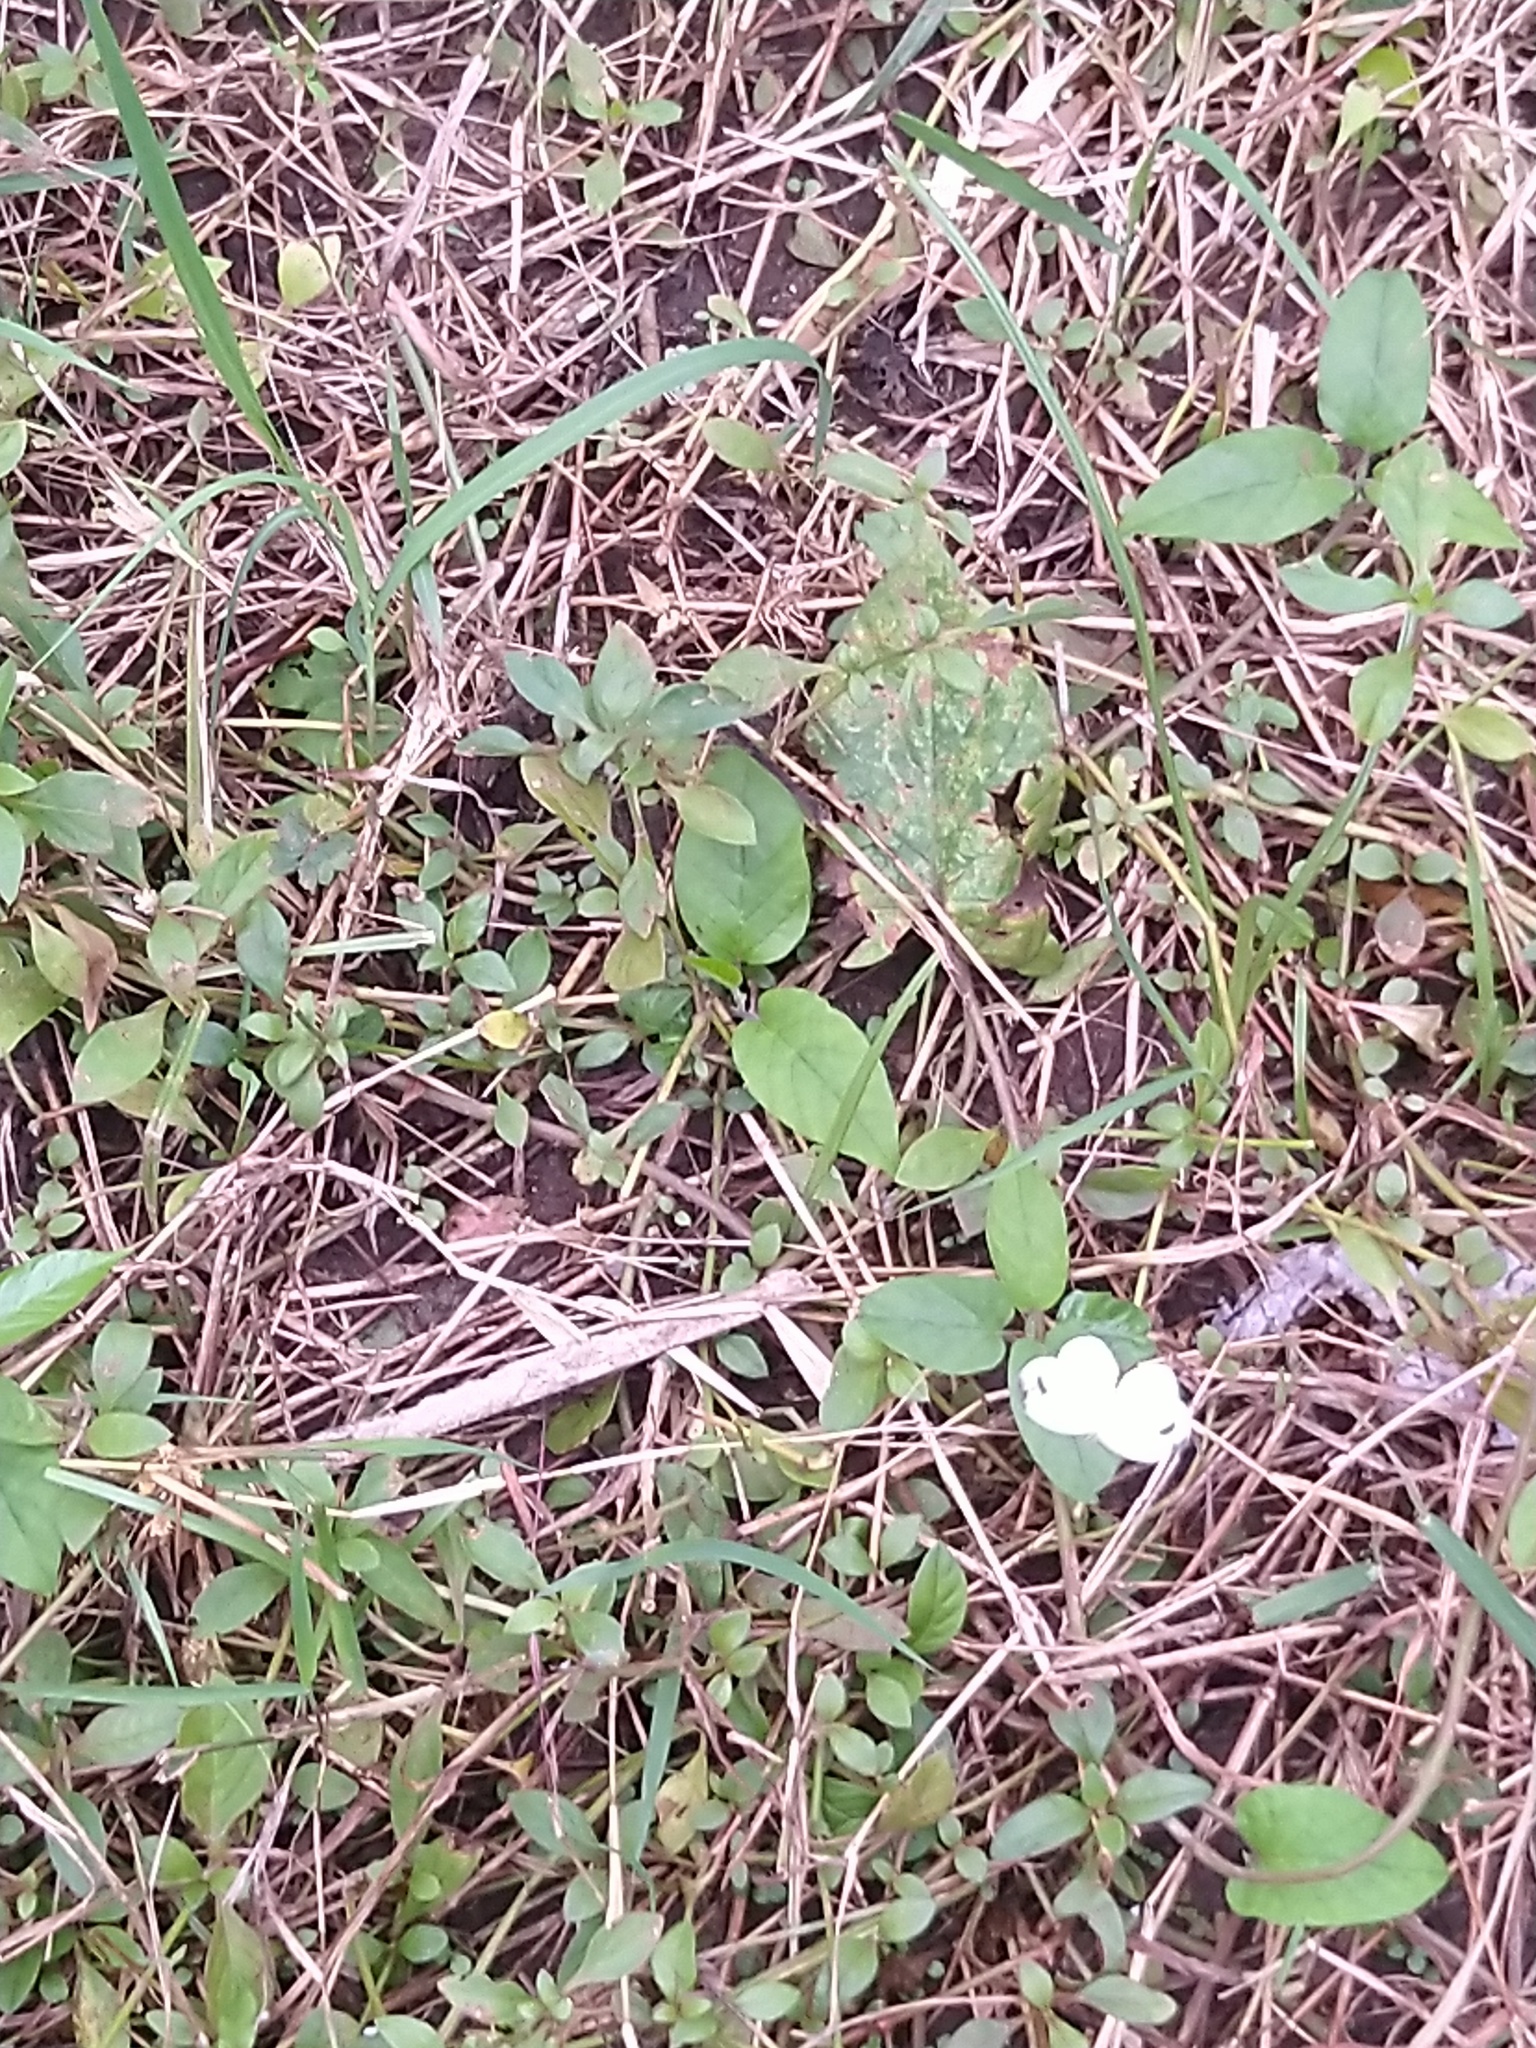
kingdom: Animalia
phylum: Arthropoda
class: Insecta
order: Lepidoptera
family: Pieridae
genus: Leptosia
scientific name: Leptosia nina
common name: Psyche
